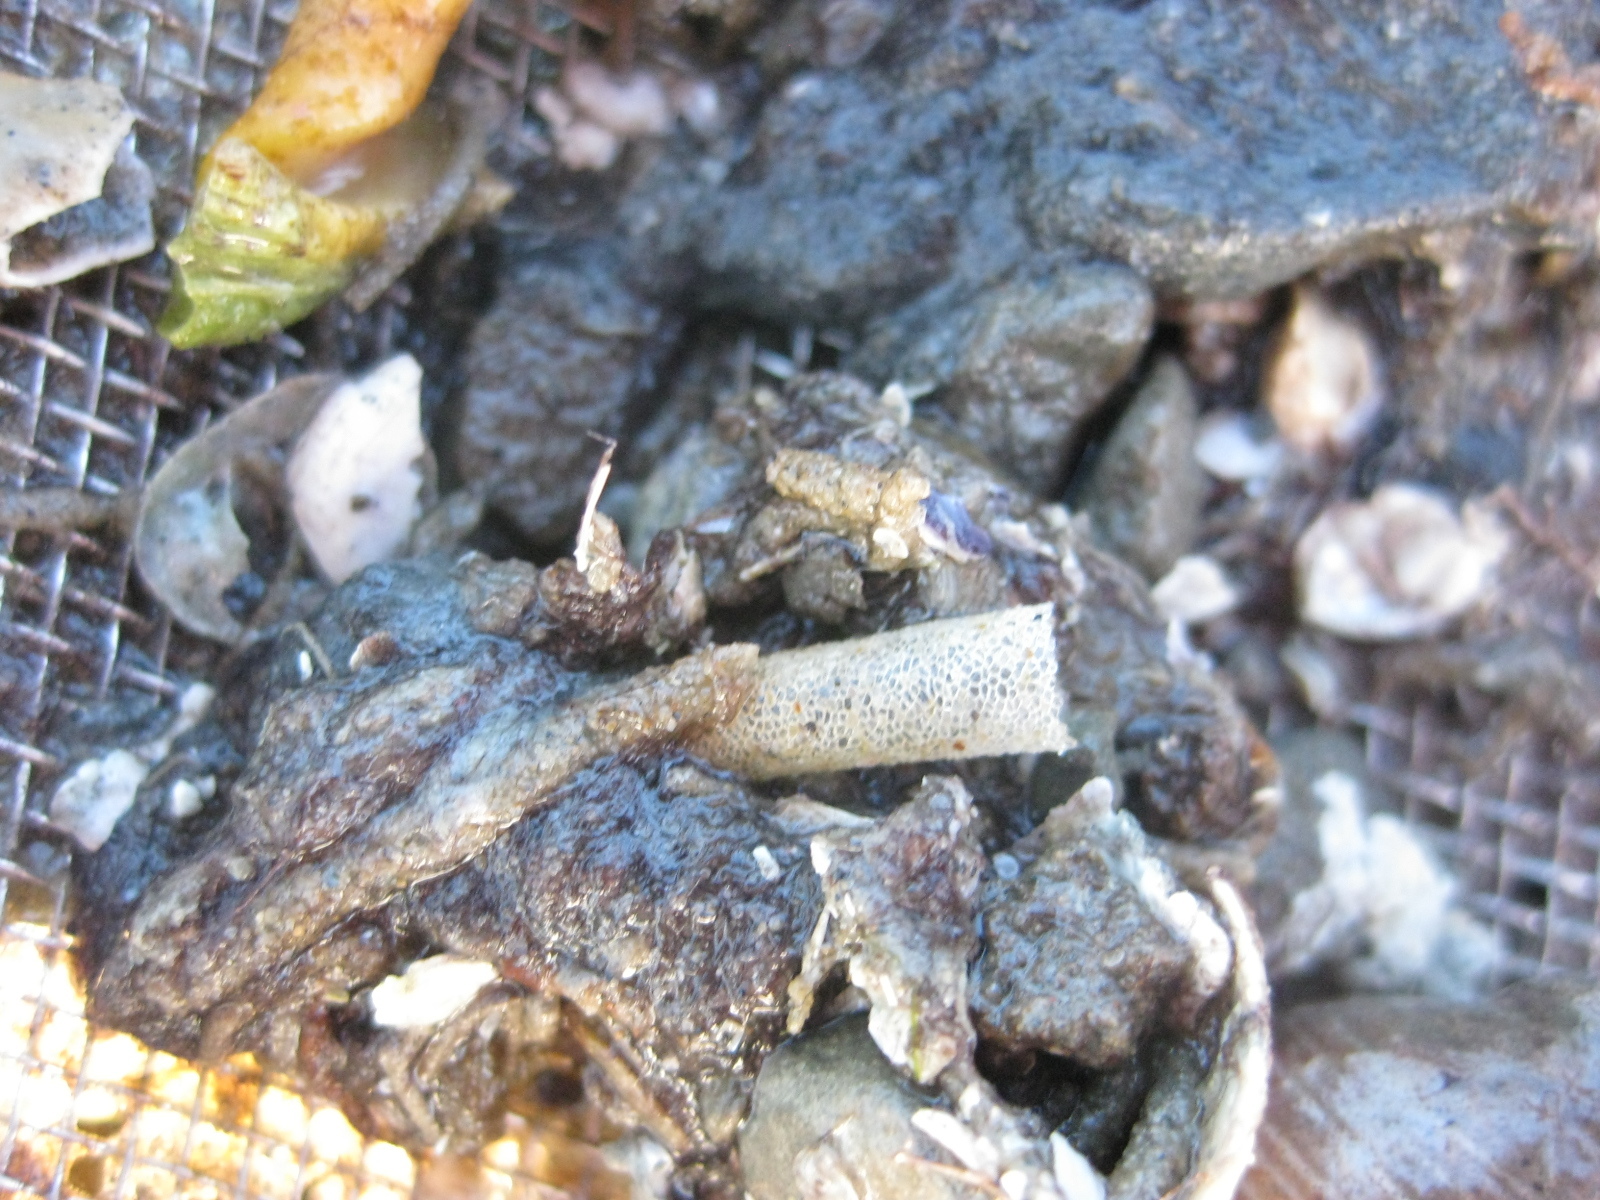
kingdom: Animalia
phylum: Annelida
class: Polychaeta
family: Pectinariidae
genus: Lagis
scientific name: Lagis australis
